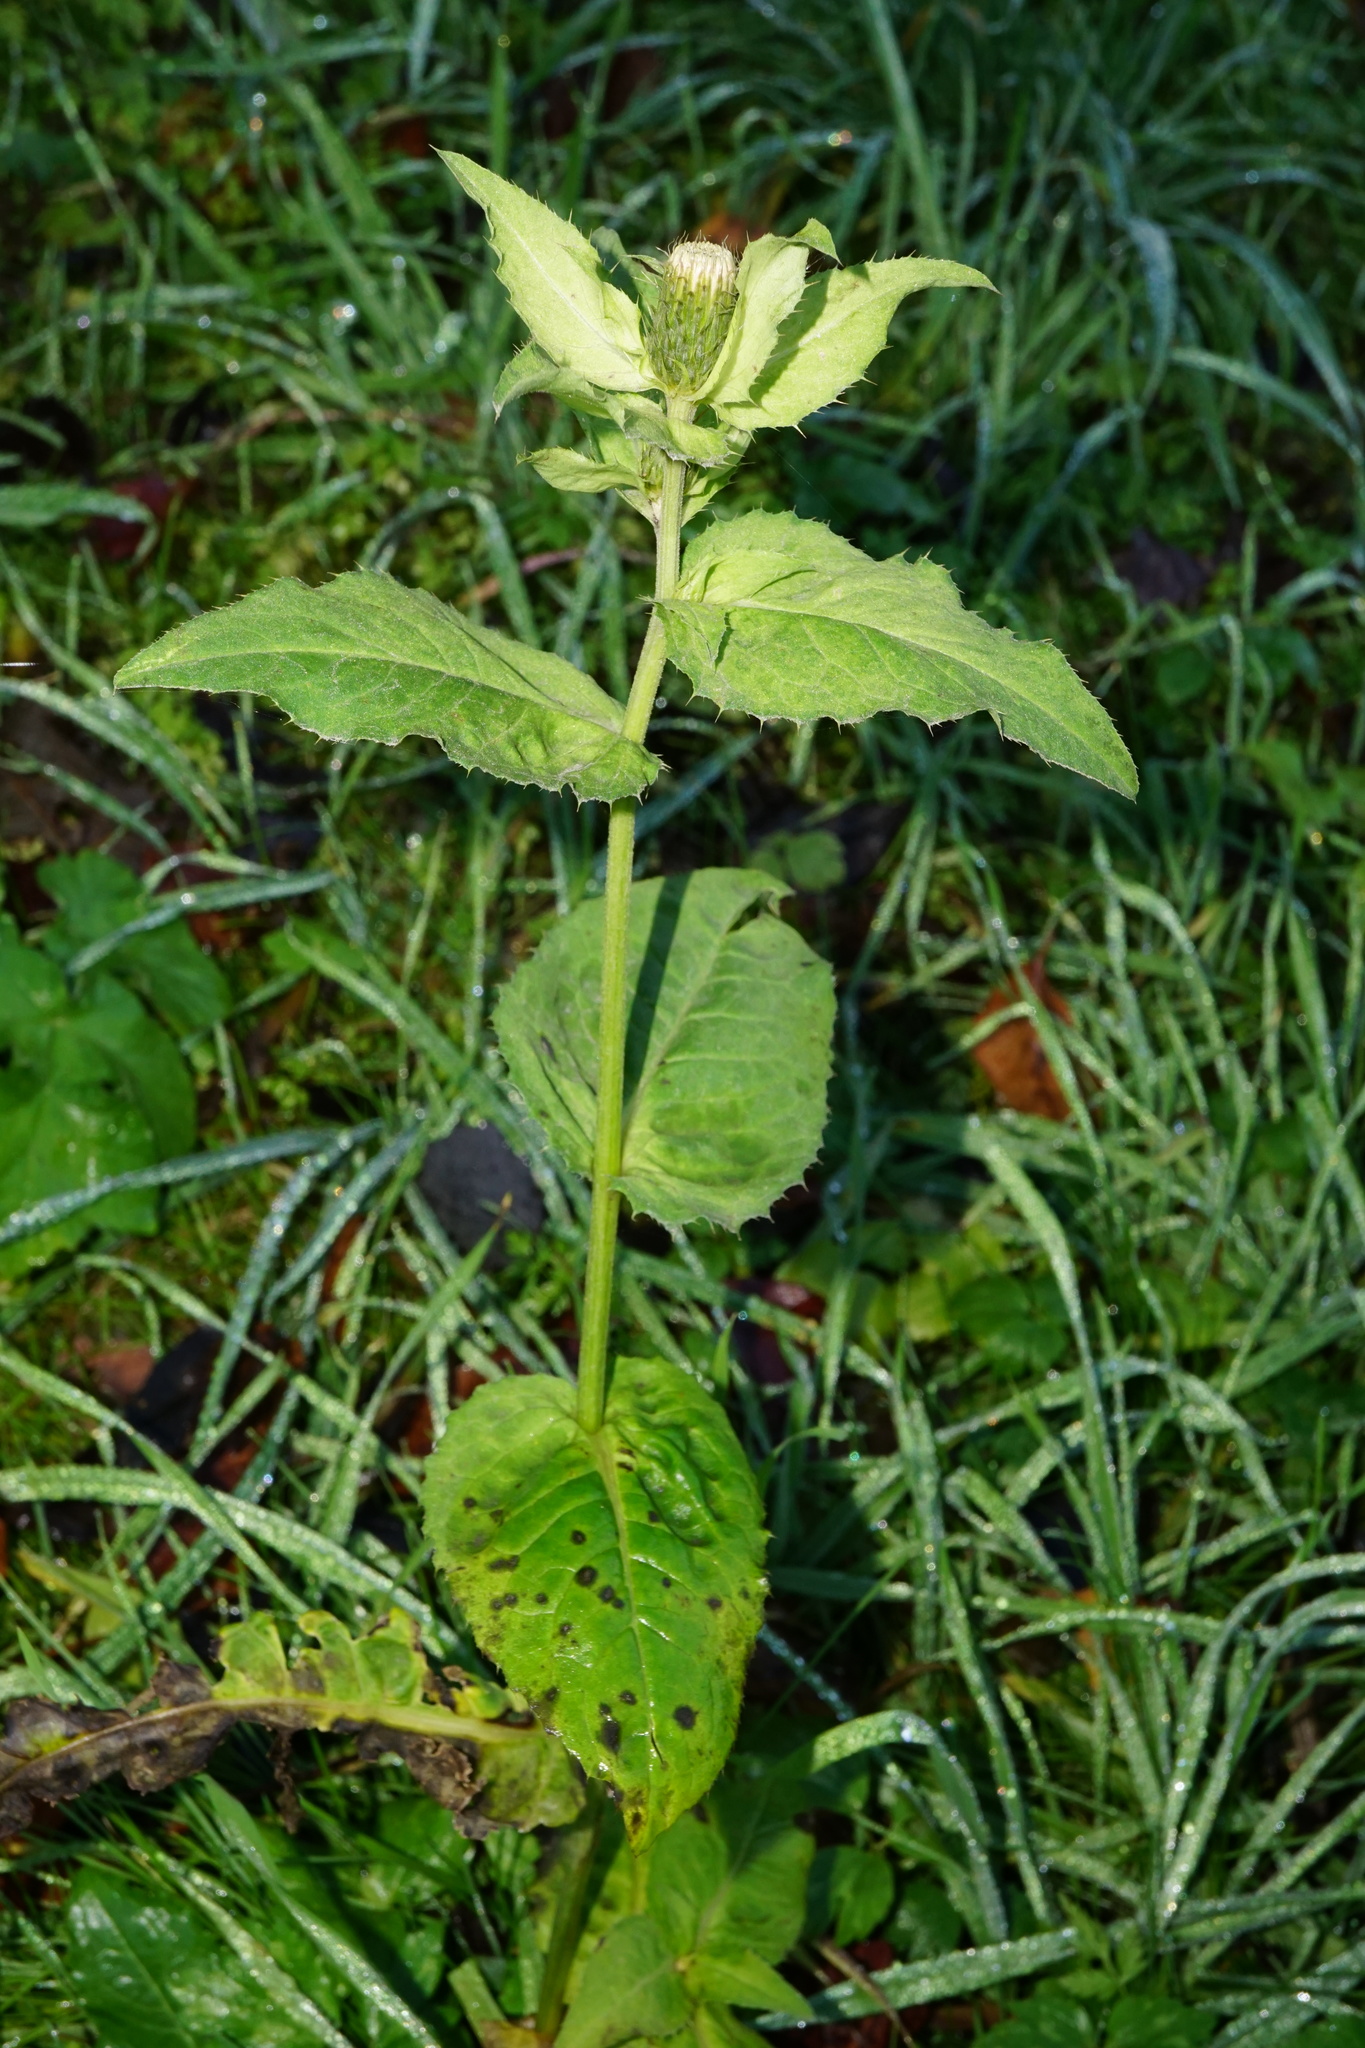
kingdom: Plantae
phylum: Tracheophyta
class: Magnoliopsida
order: Asterales
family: Asteraceae
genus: Cirsium
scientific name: Cirsium oleraceum
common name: Cabbage thistle
